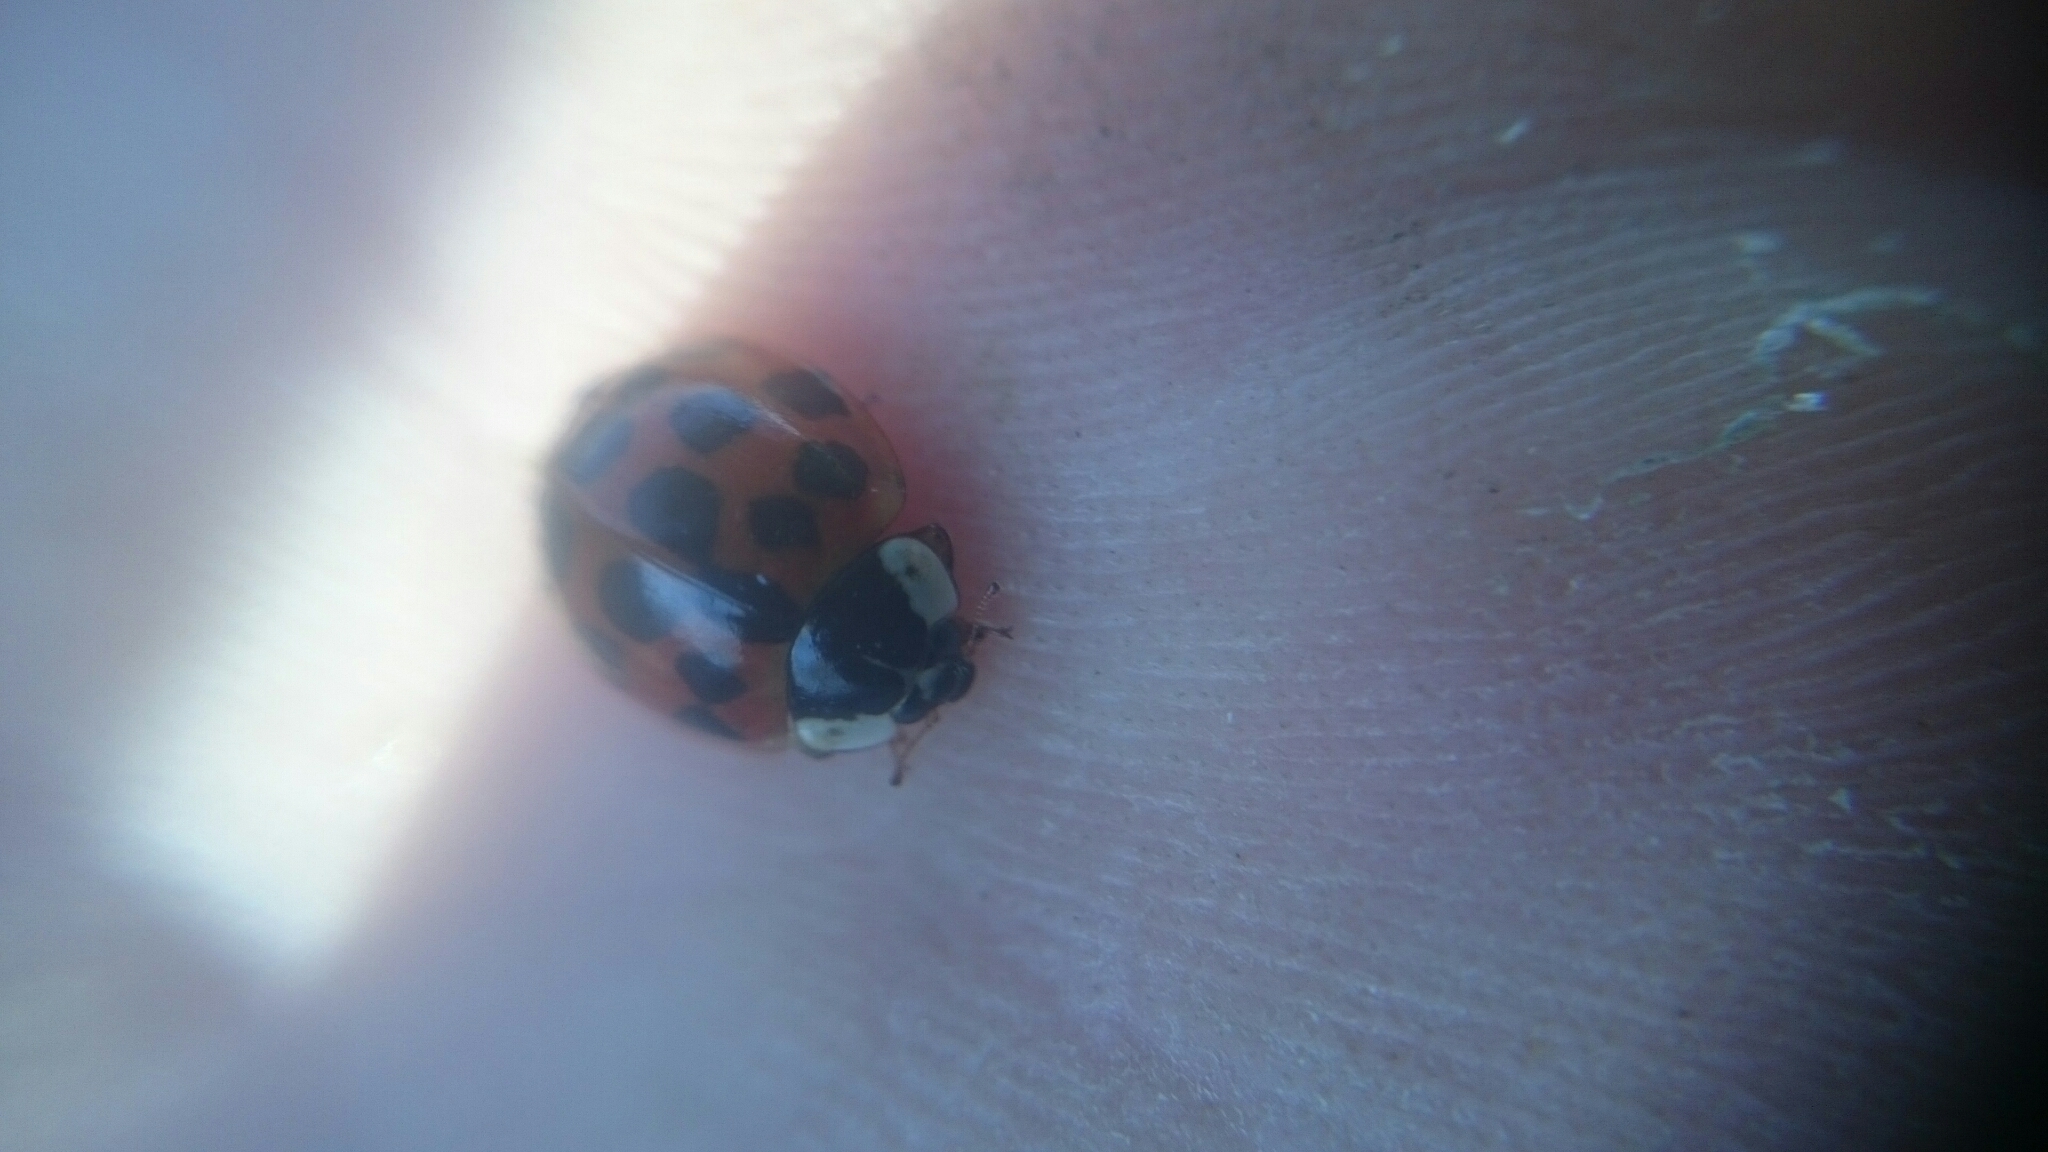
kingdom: Animalia
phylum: Arthropoda
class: Insecta
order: Coleoptera
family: Coccinellidae
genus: Harmonia
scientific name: Harmonia axyridis
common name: Harlequin ladybird
